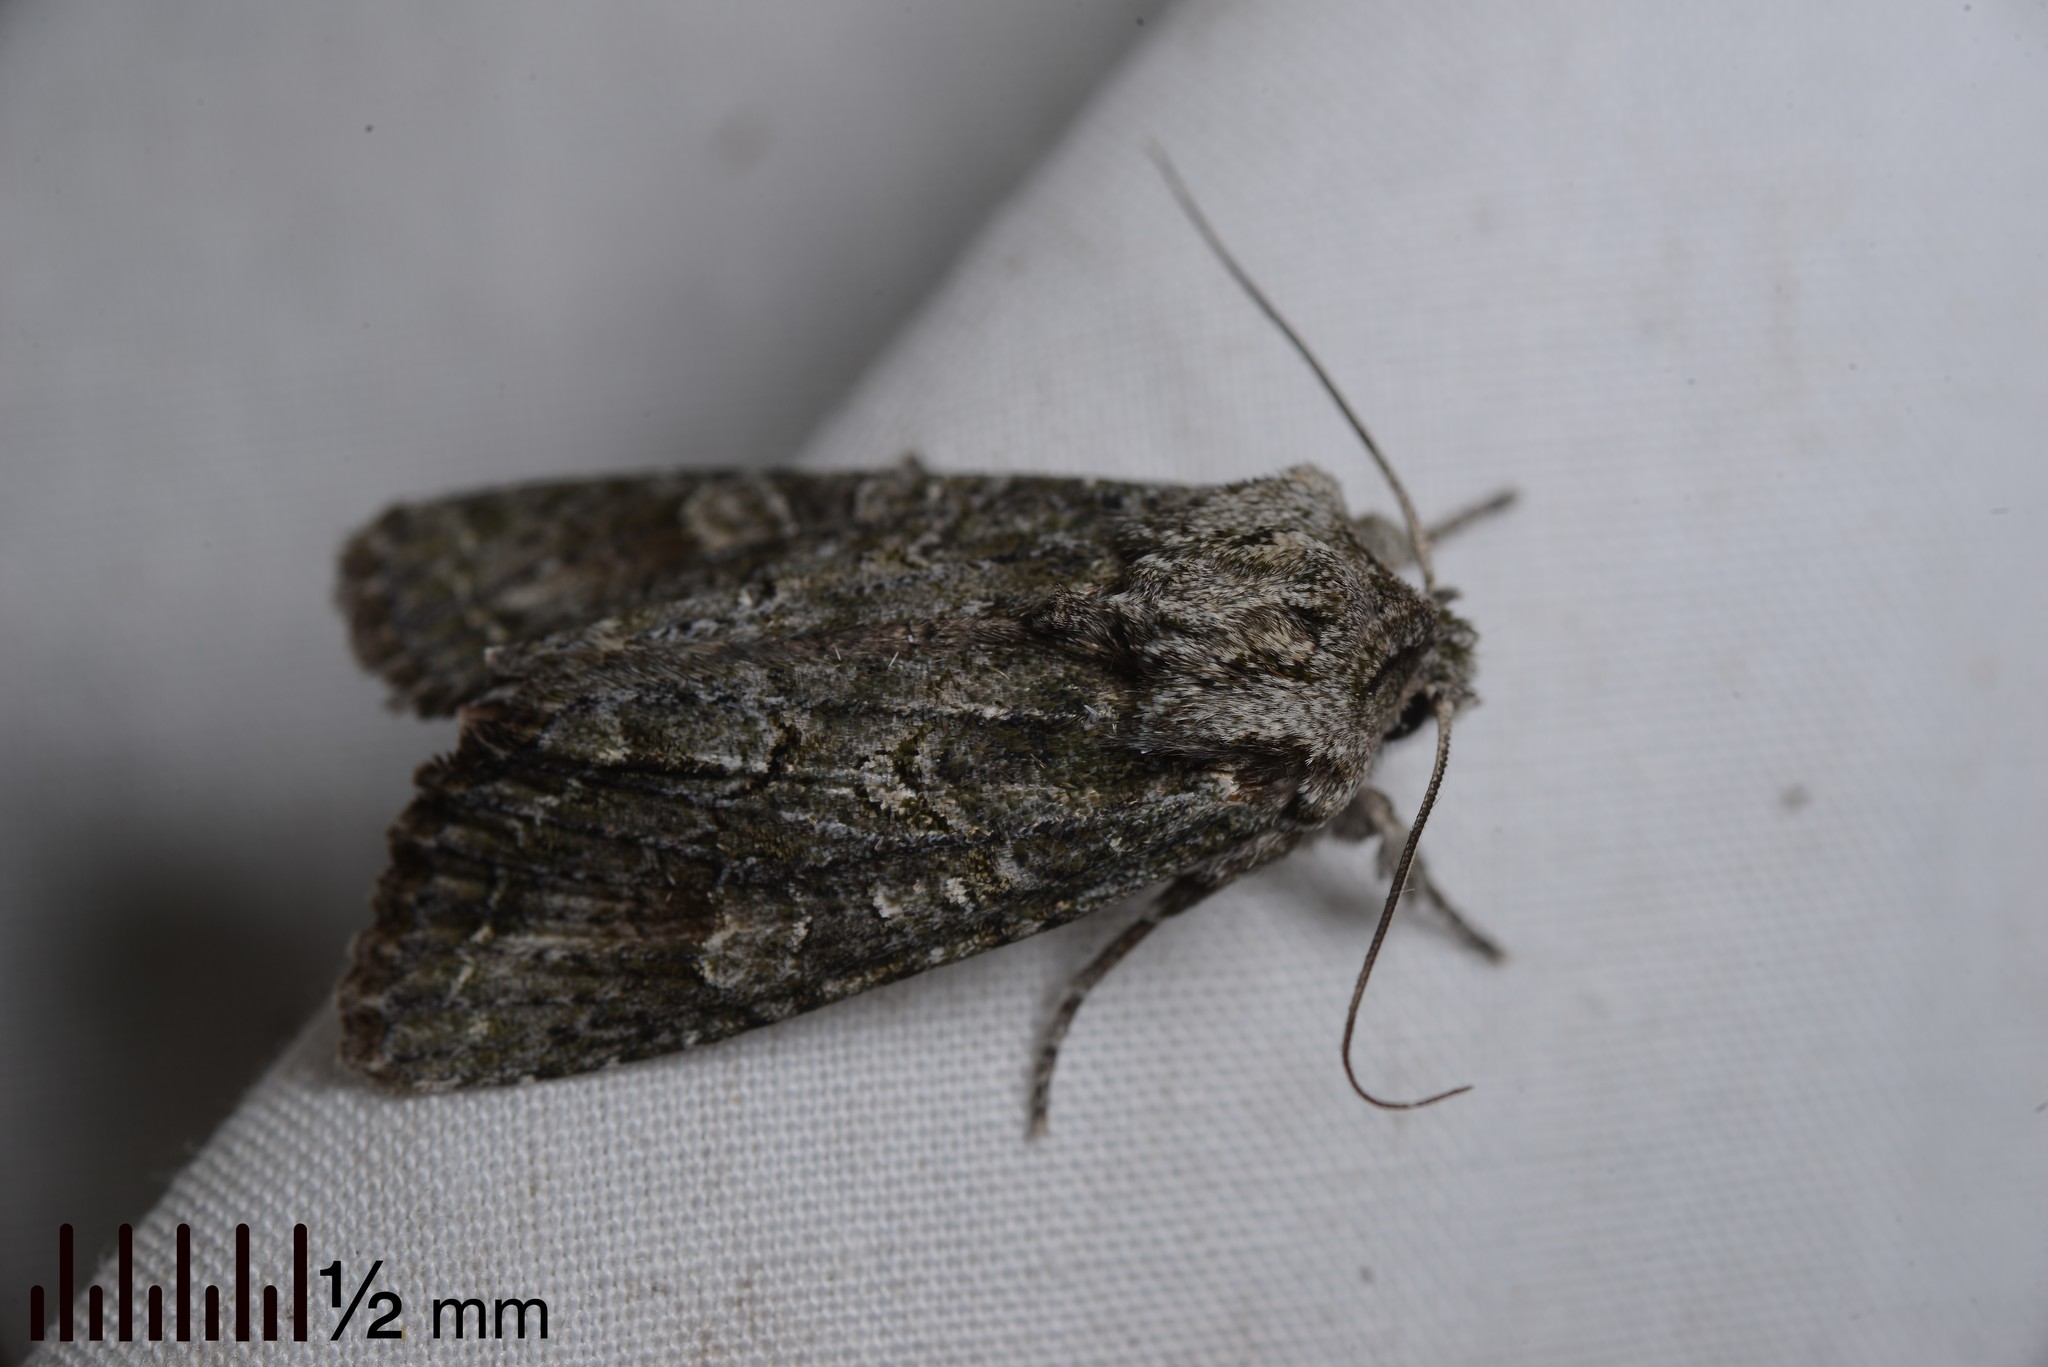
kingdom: Animalia
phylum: Arthropoda
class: Insecta
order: Lepidoptera
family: Noctuidae
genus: Ichneutica
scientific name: Ichneutica mutans
